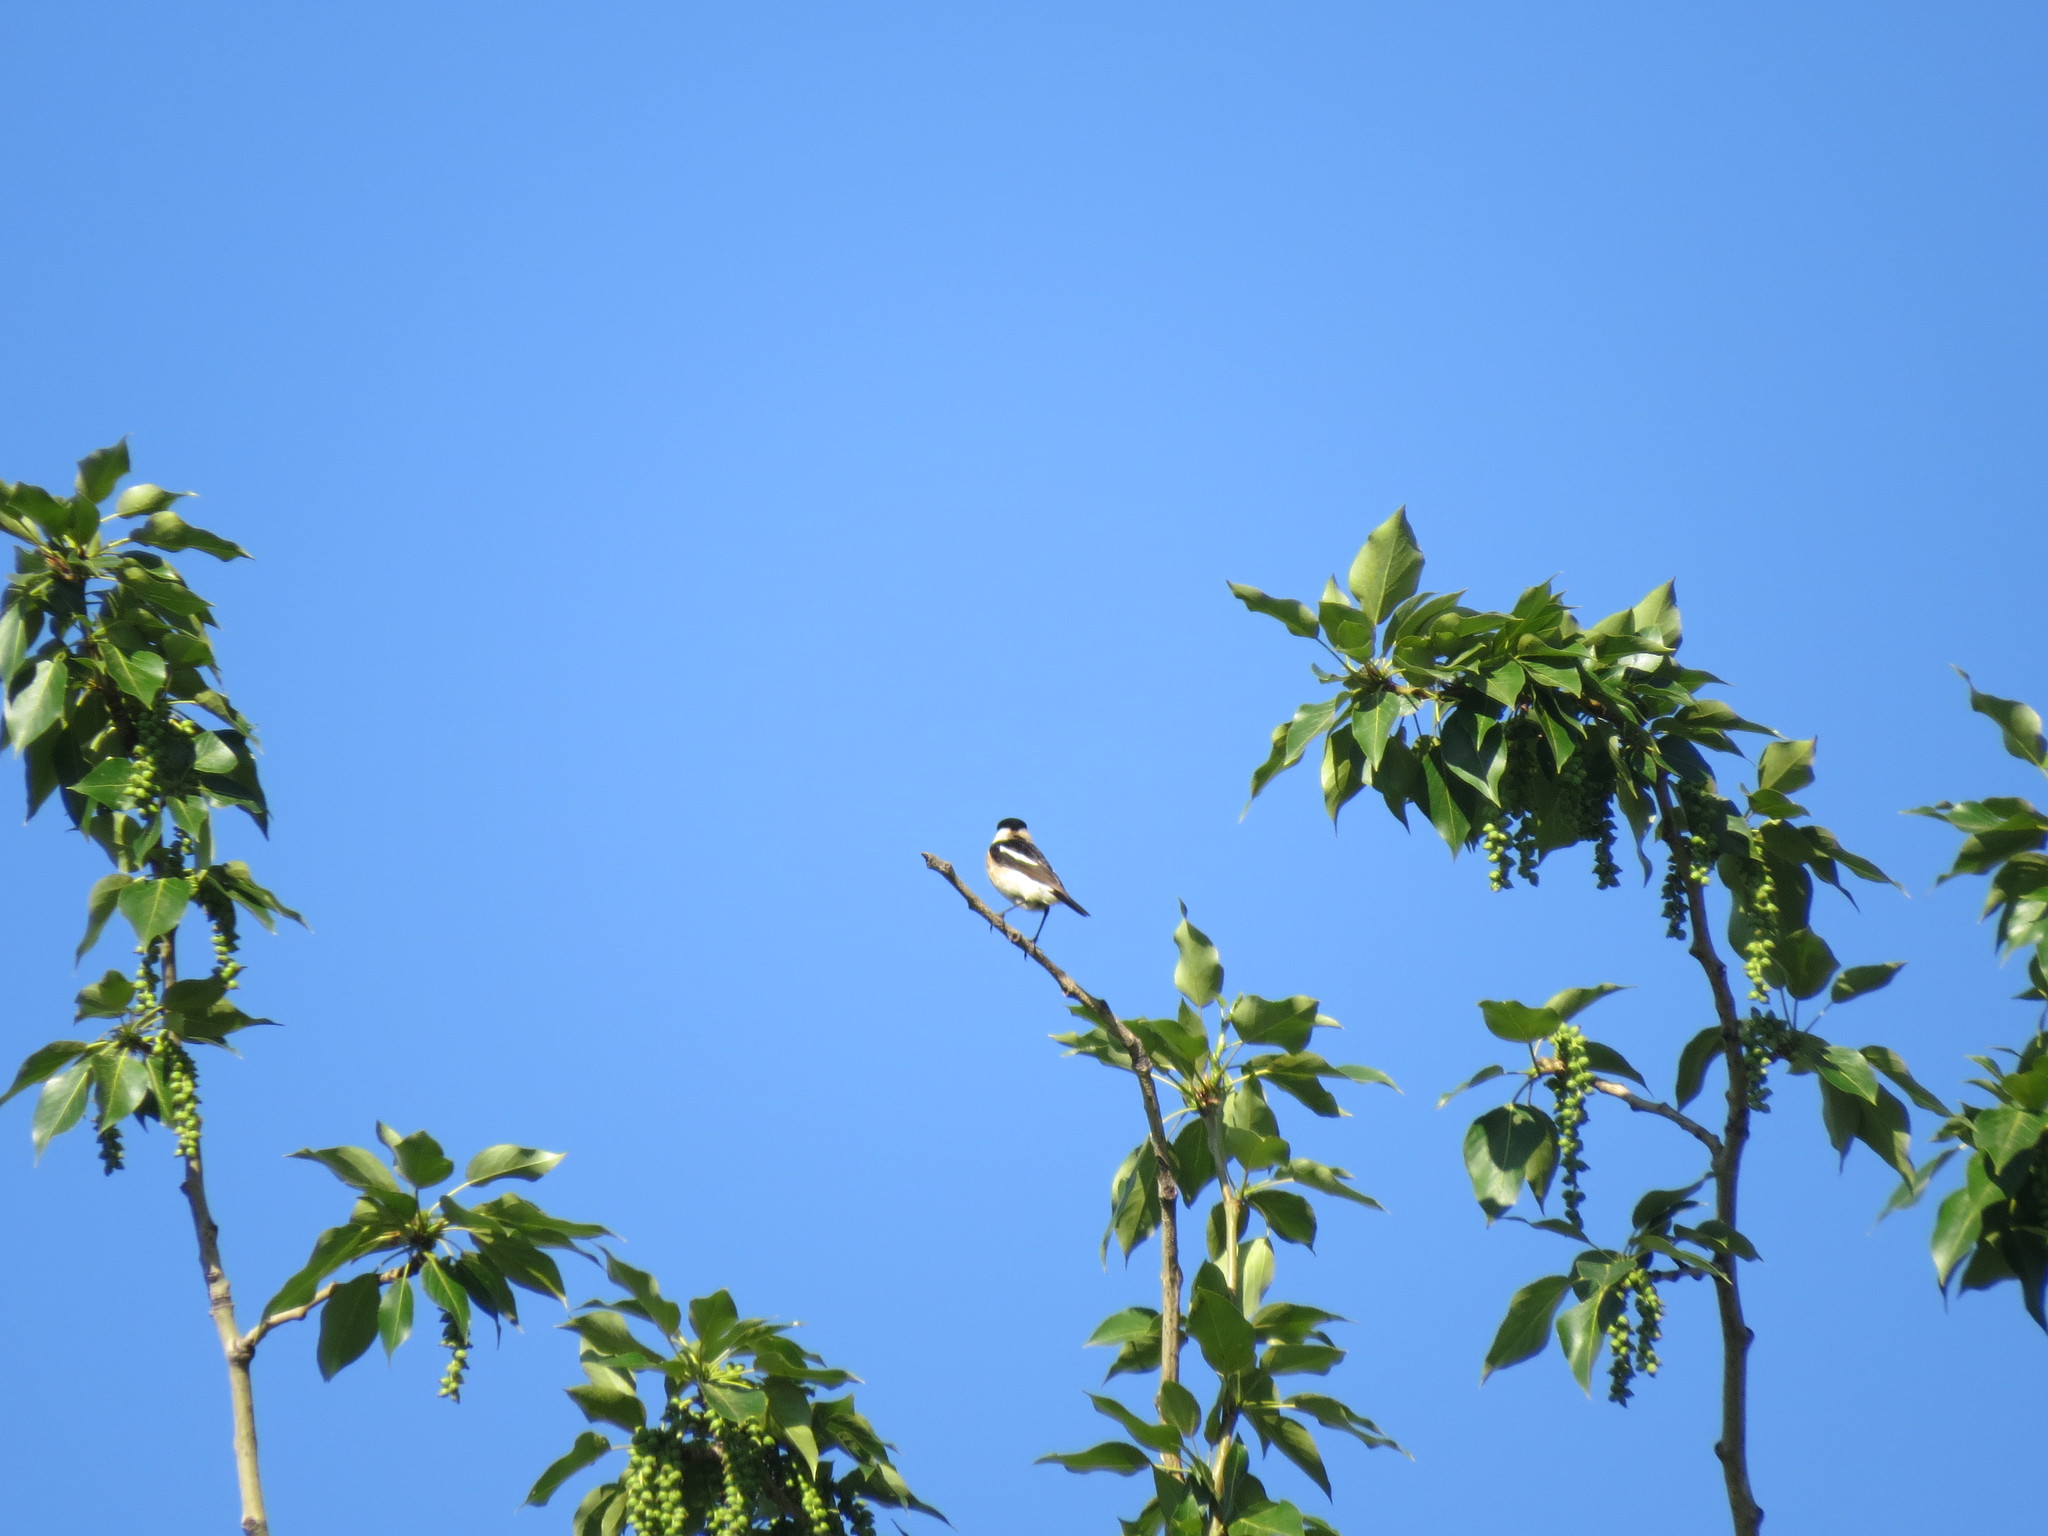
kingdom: Animalia
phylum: Chordata
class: Aves
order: Passeriformes
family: Muscicapidae
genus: Saxicola
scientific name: Saxicola maurus
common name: Siberian stonechat
